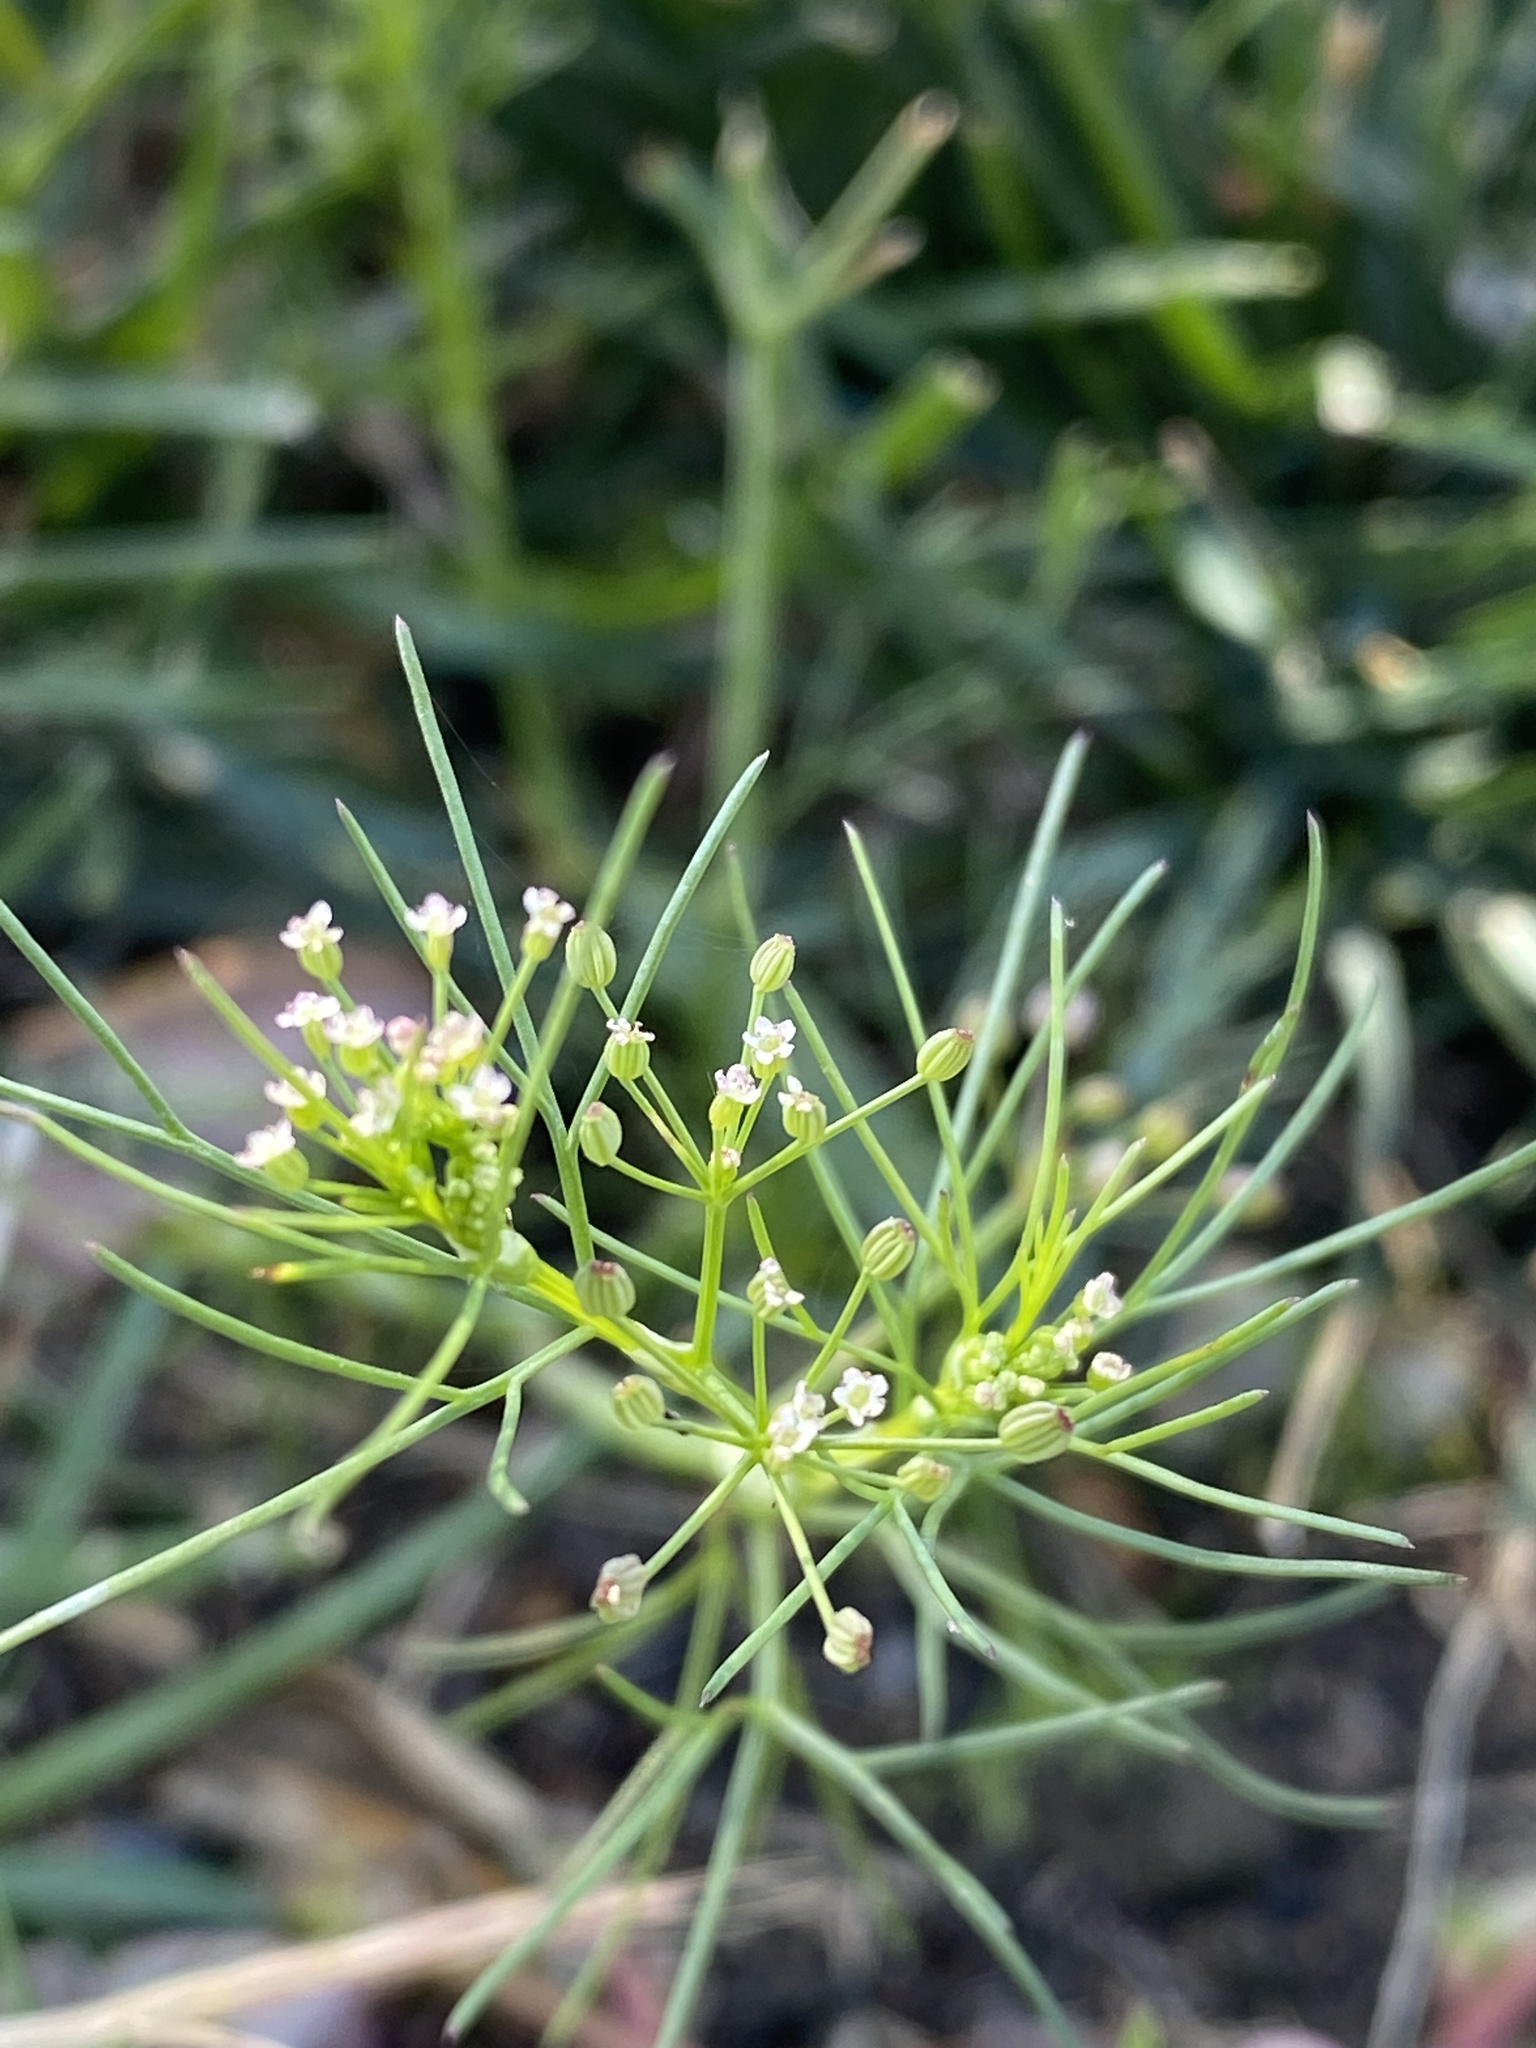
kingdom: Plantae
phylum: Tracheophyta
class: Magnoliopsida
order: Apiales
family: Apiaceae
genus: Cyclospermum
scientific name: Cyclospermum leptophyllum
